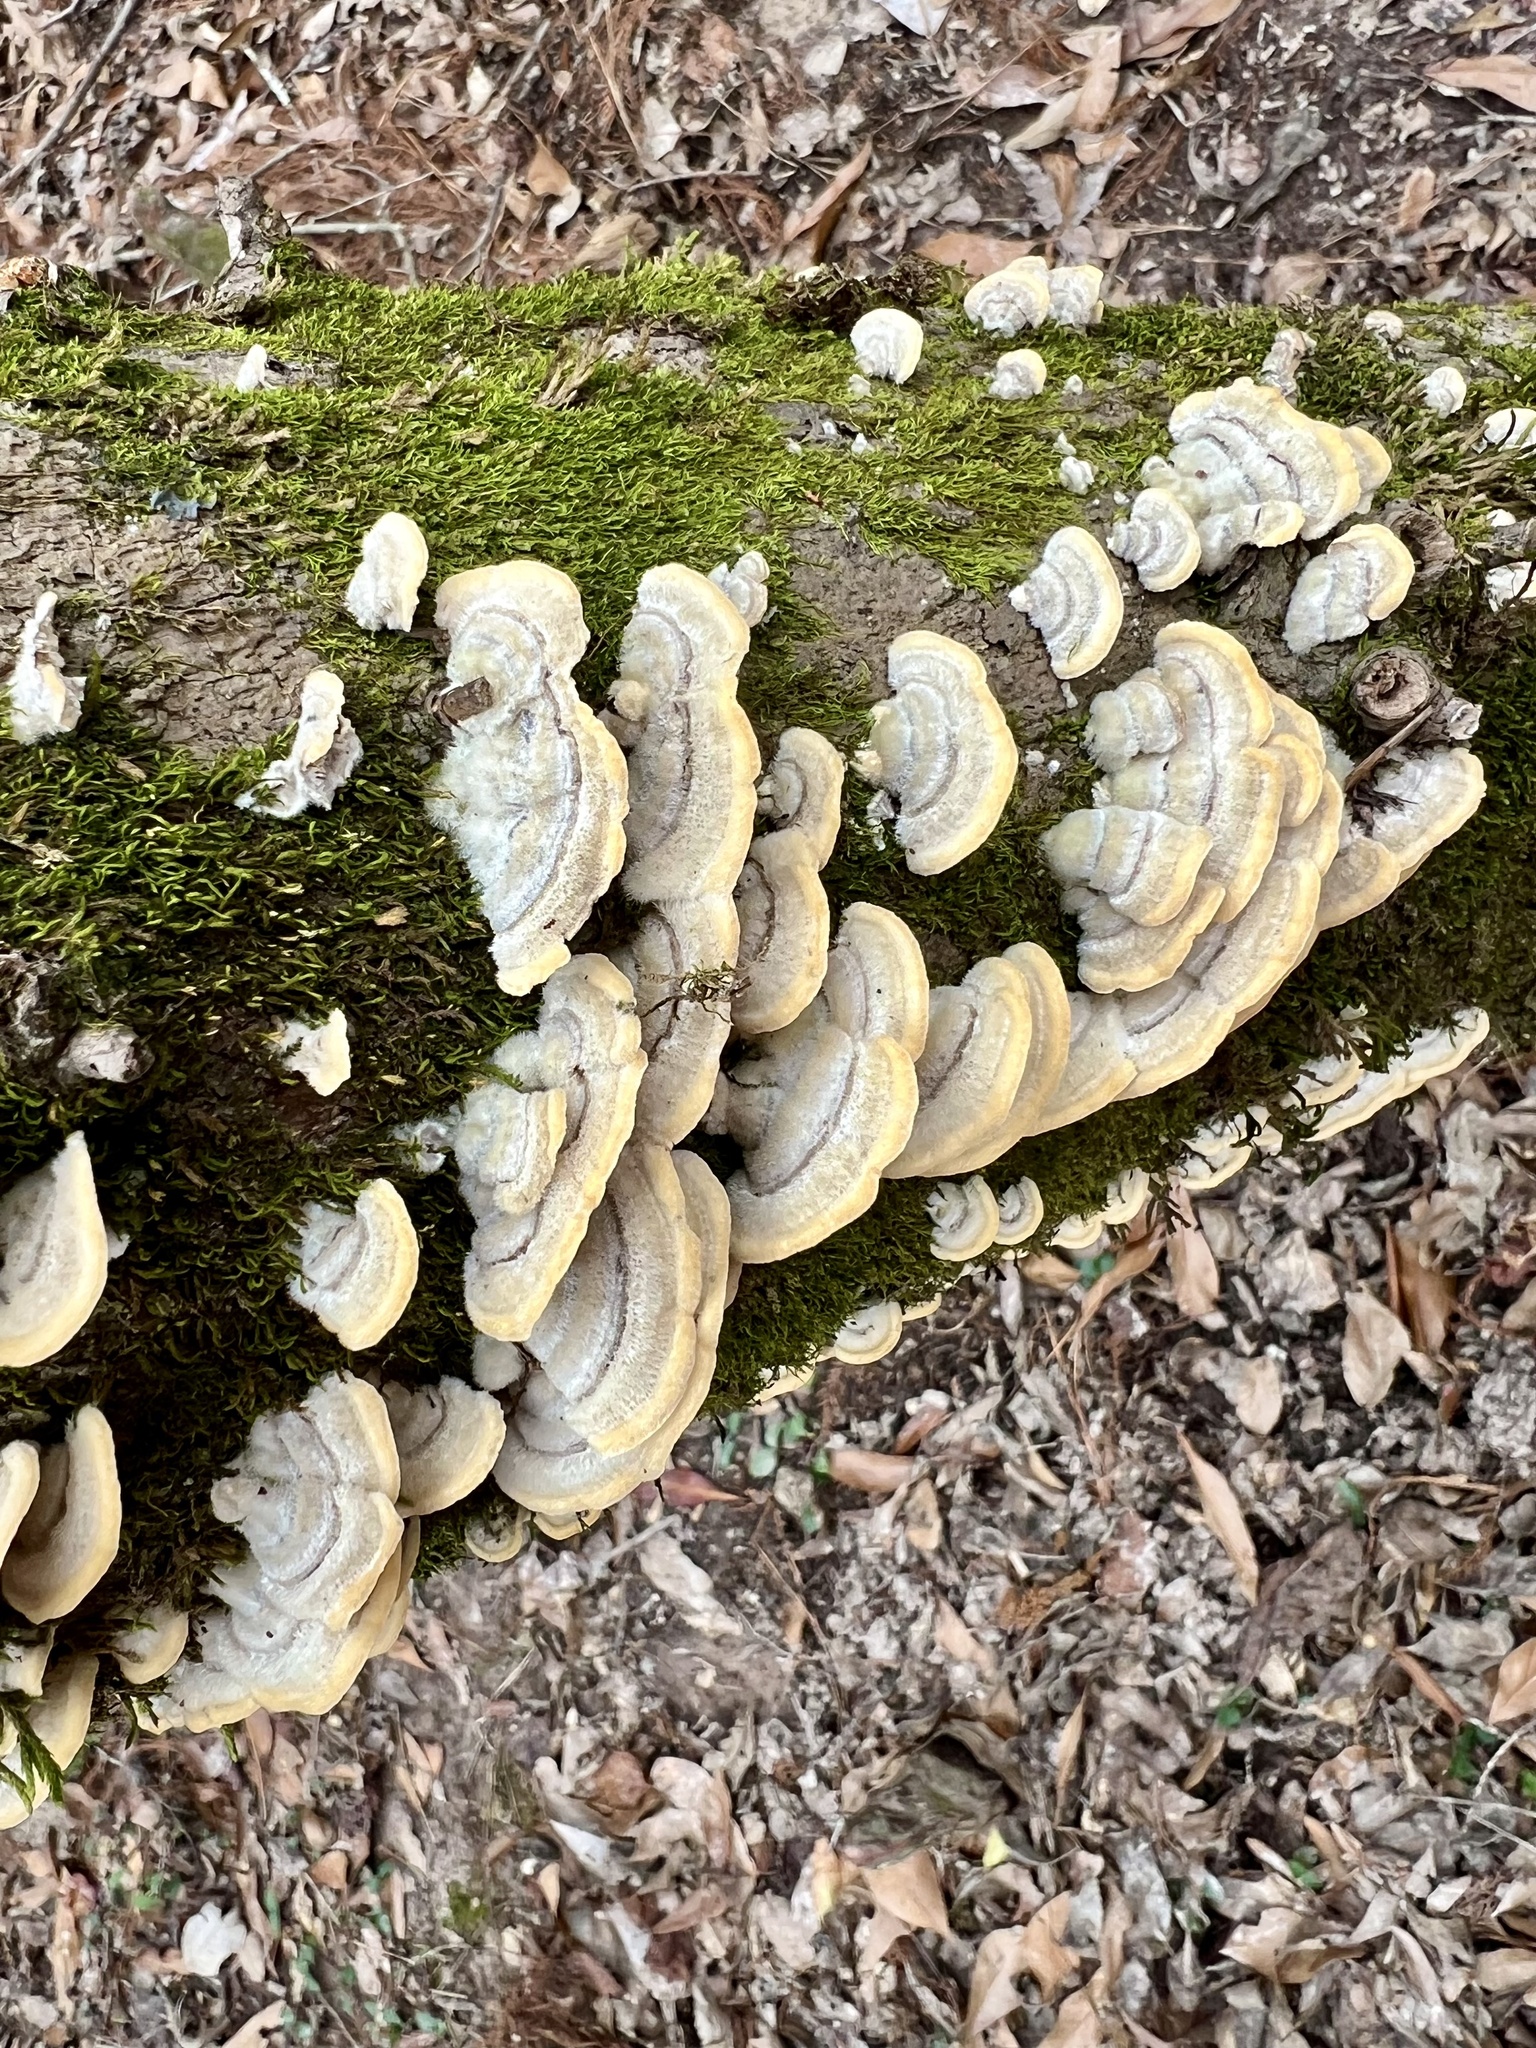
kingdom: Fungi
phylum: Basidiomycota
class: Agaricomycetes
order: Polyporales
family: Cerrenaceae
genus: Cerrena
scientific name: Cerrena unicolor
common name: Mossy maze polypore
